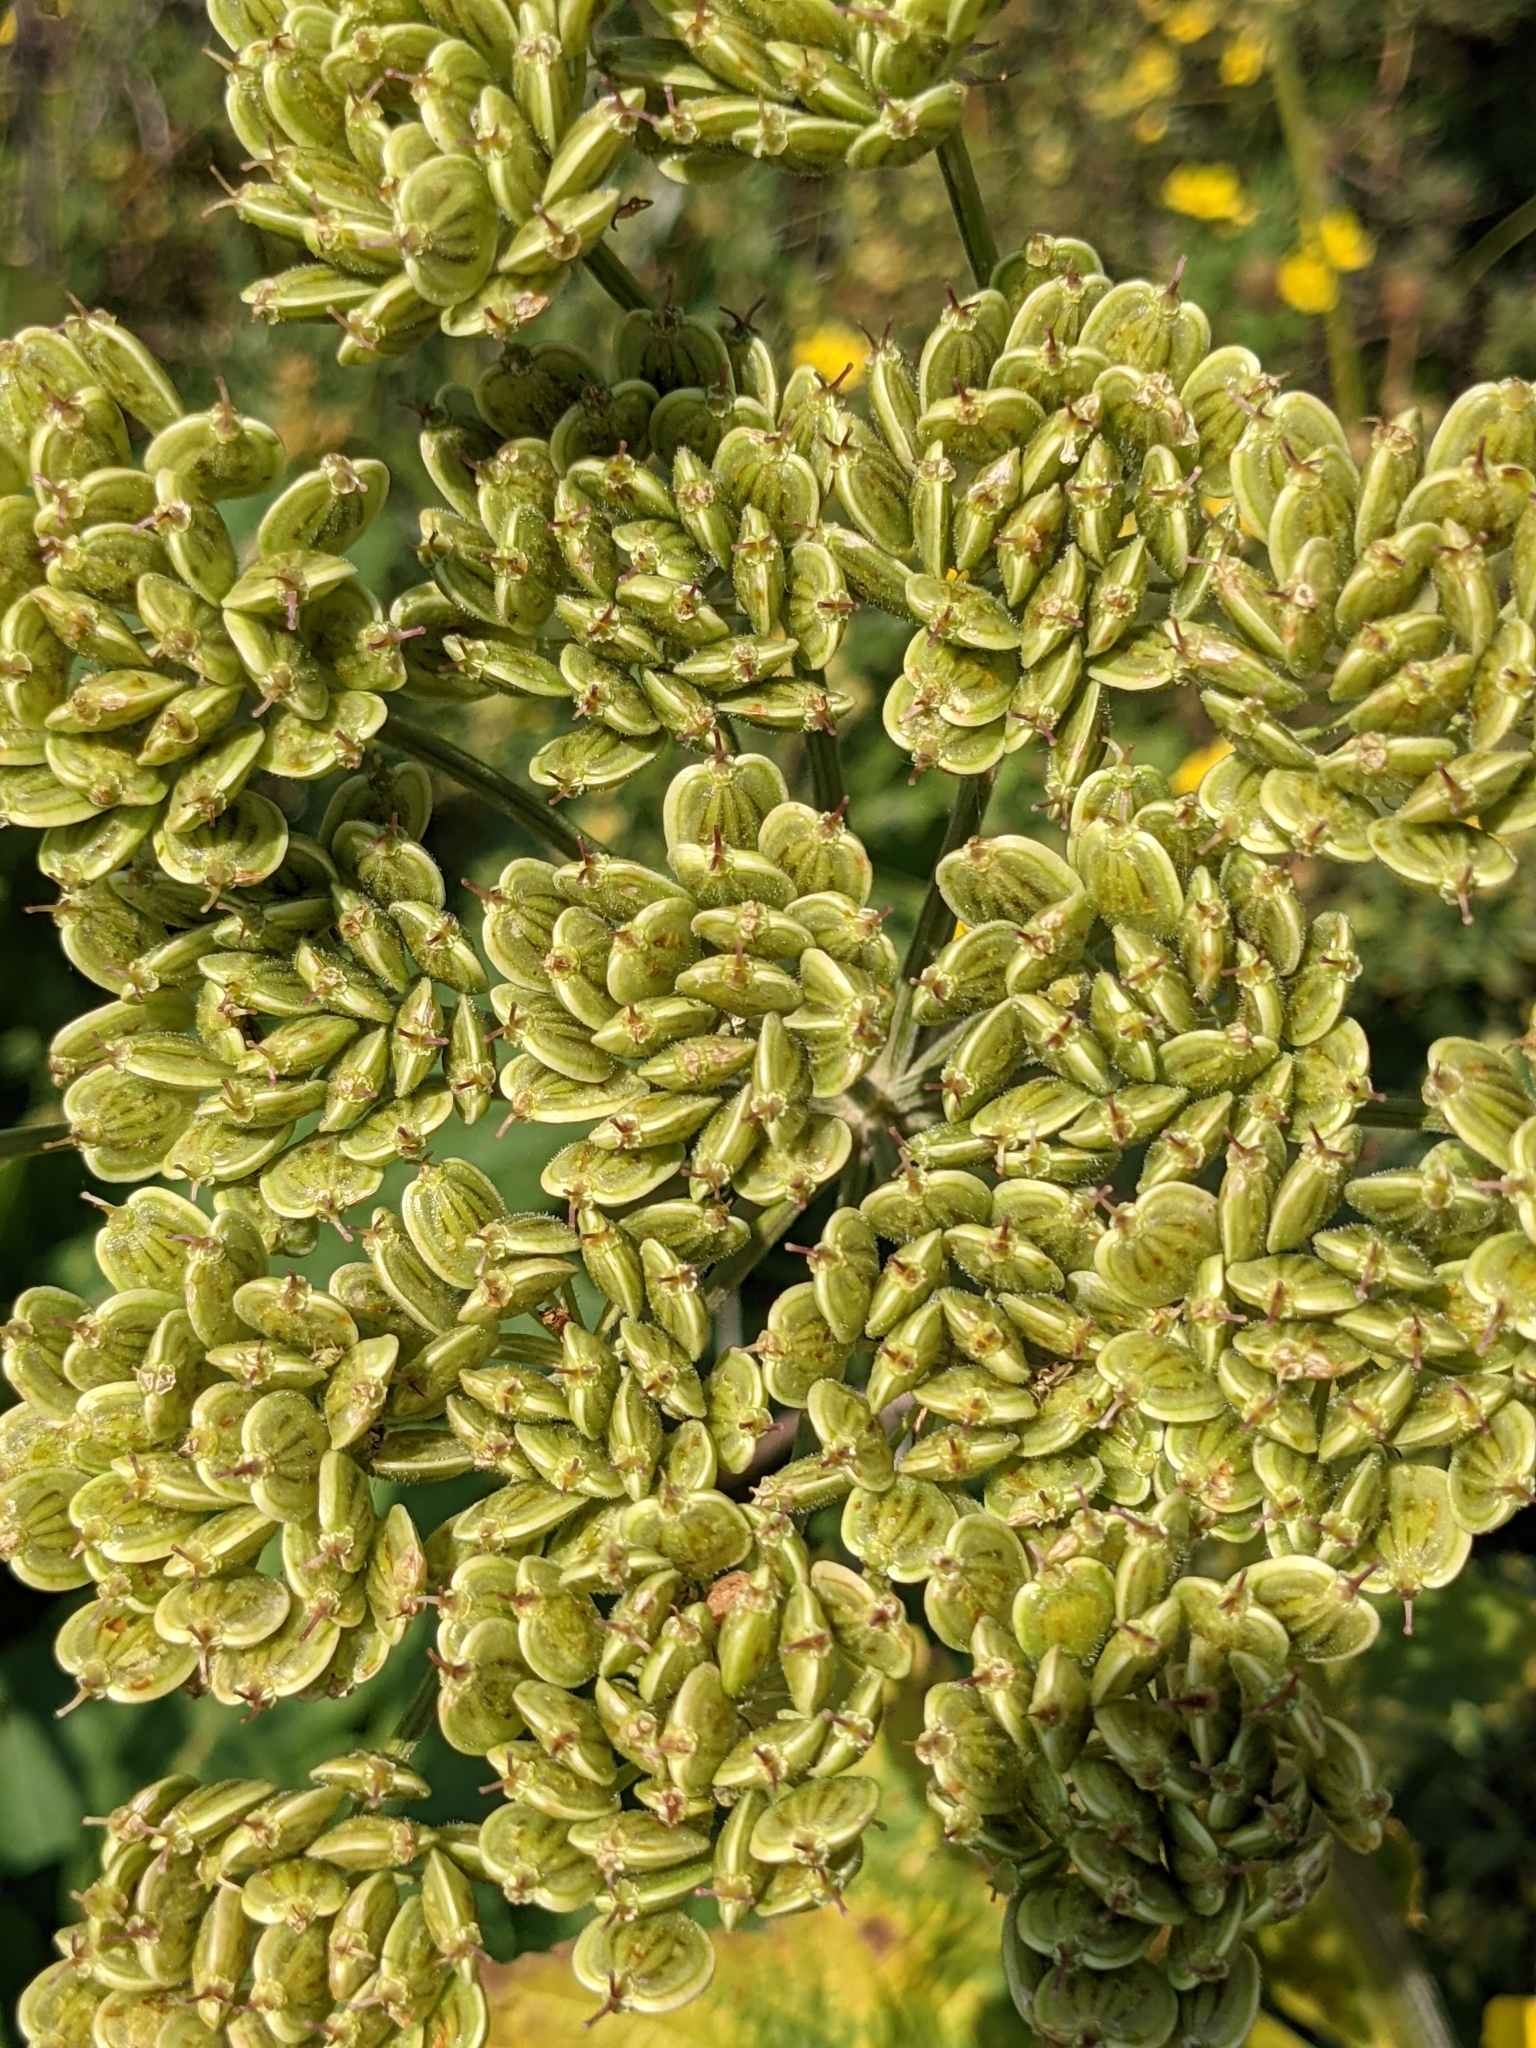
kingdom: Plantae
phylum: Tracheophyta
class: Magnoliopsida
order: Apiales
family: Apiaceae
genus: Heracleum
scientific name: Heracleum maximum
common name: American cow parsnip
